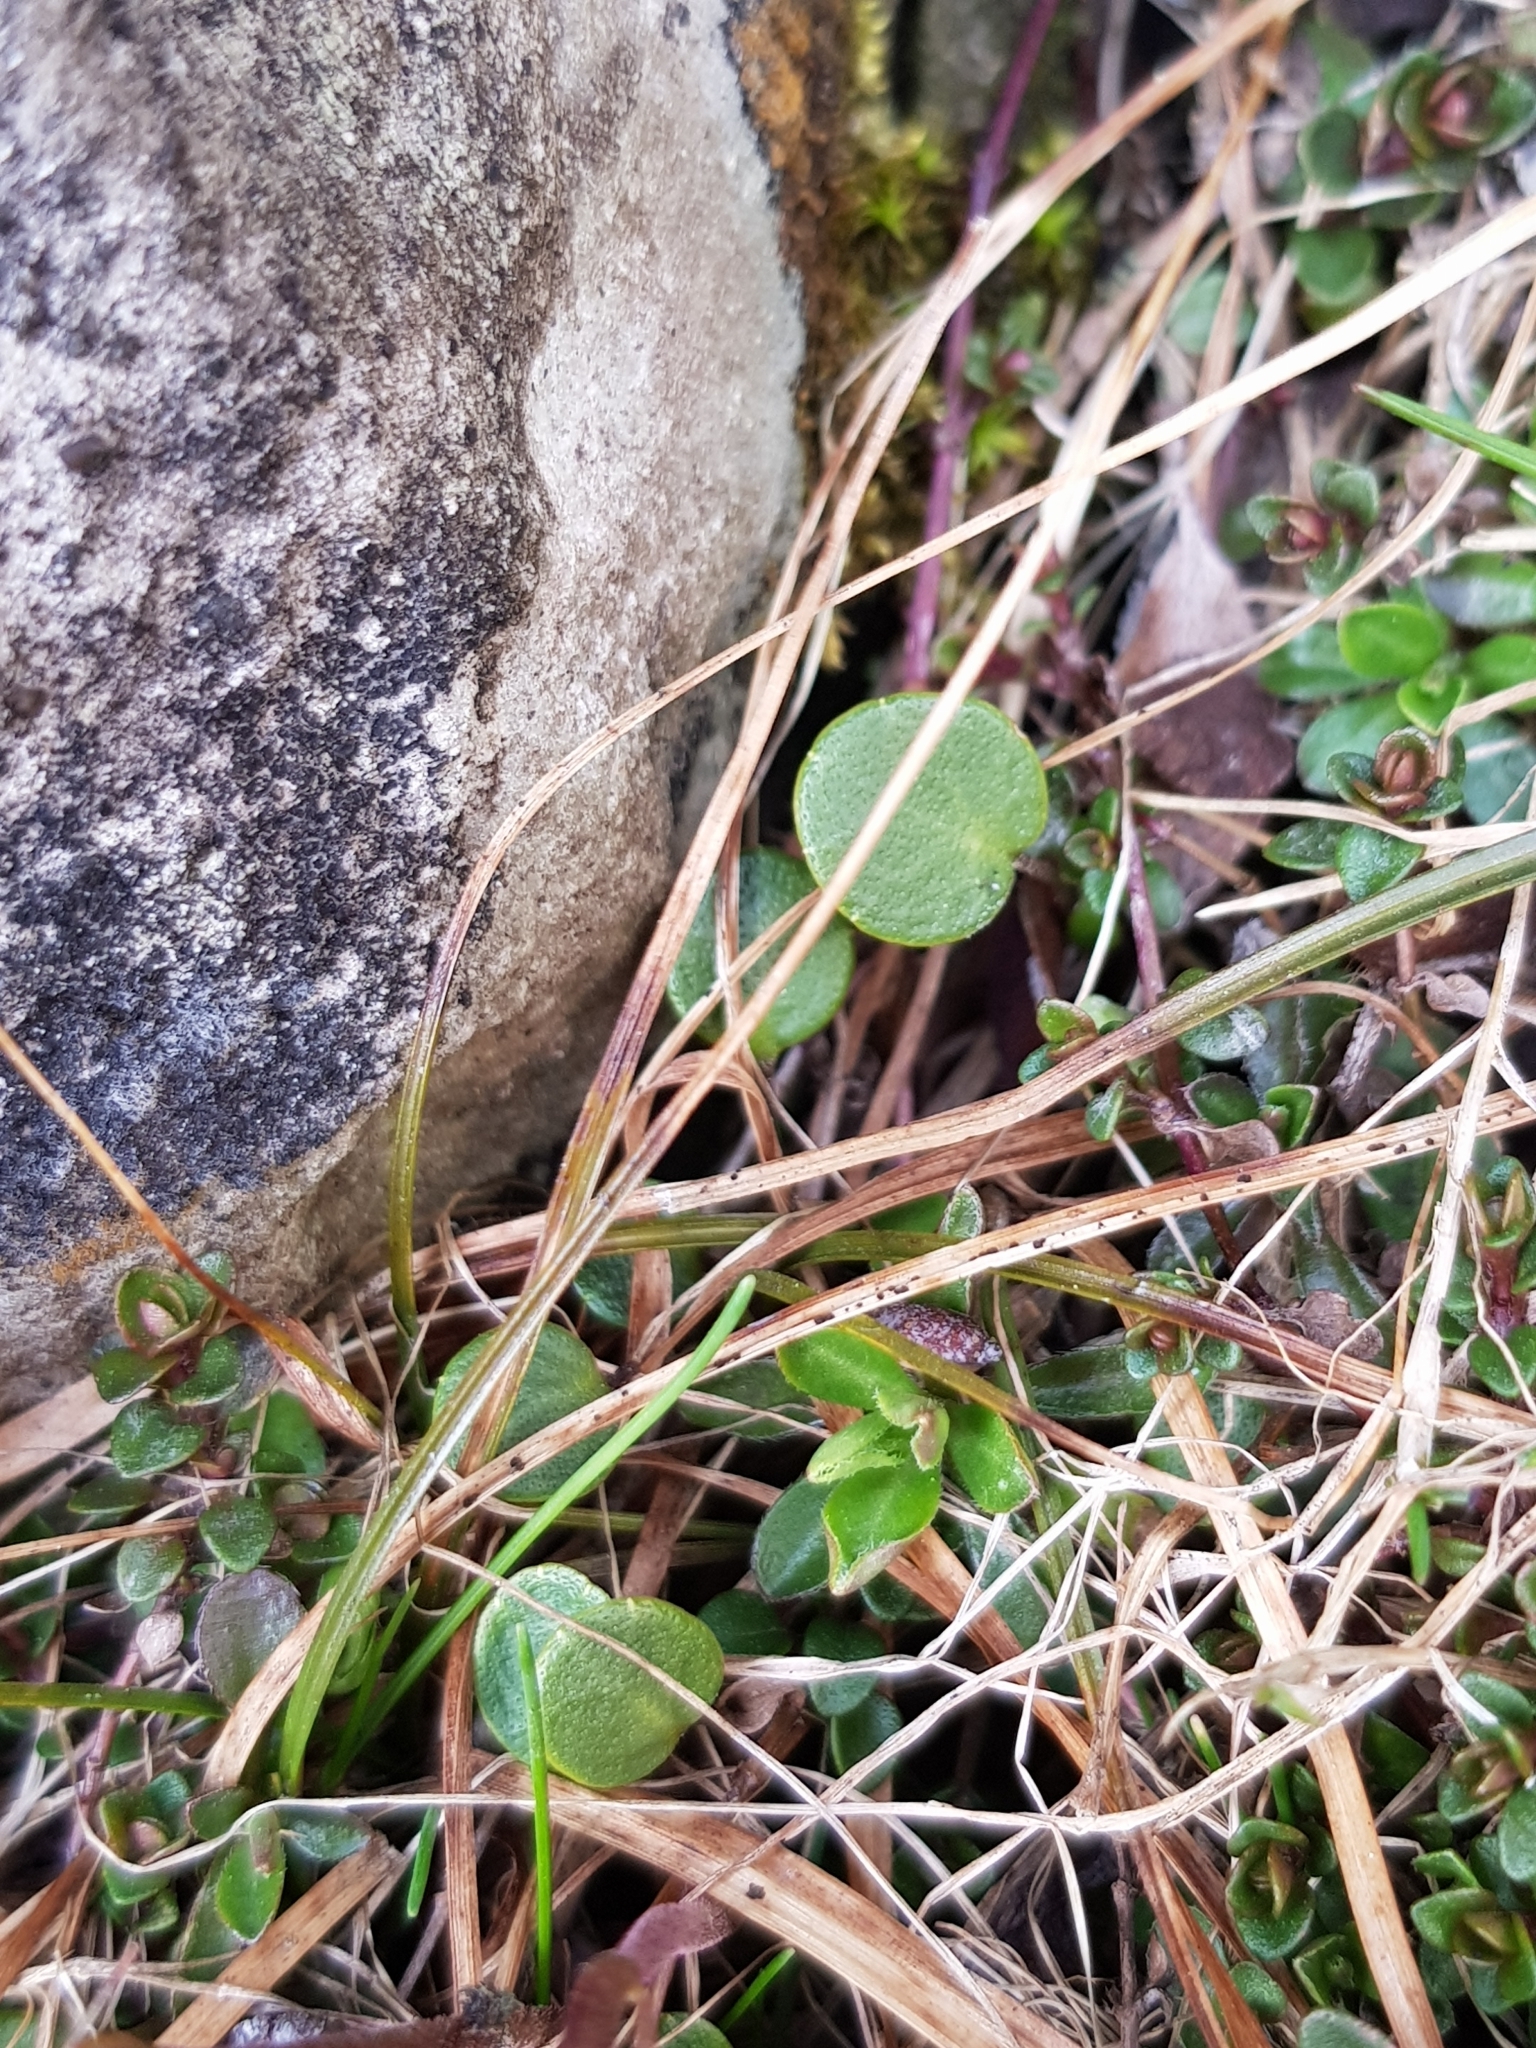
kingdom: Plantae
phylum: Tracheophyta
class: Magnoliopsida
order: Ericales
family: Primulaceae
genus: Soldanella
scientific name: Soldanella alpina
